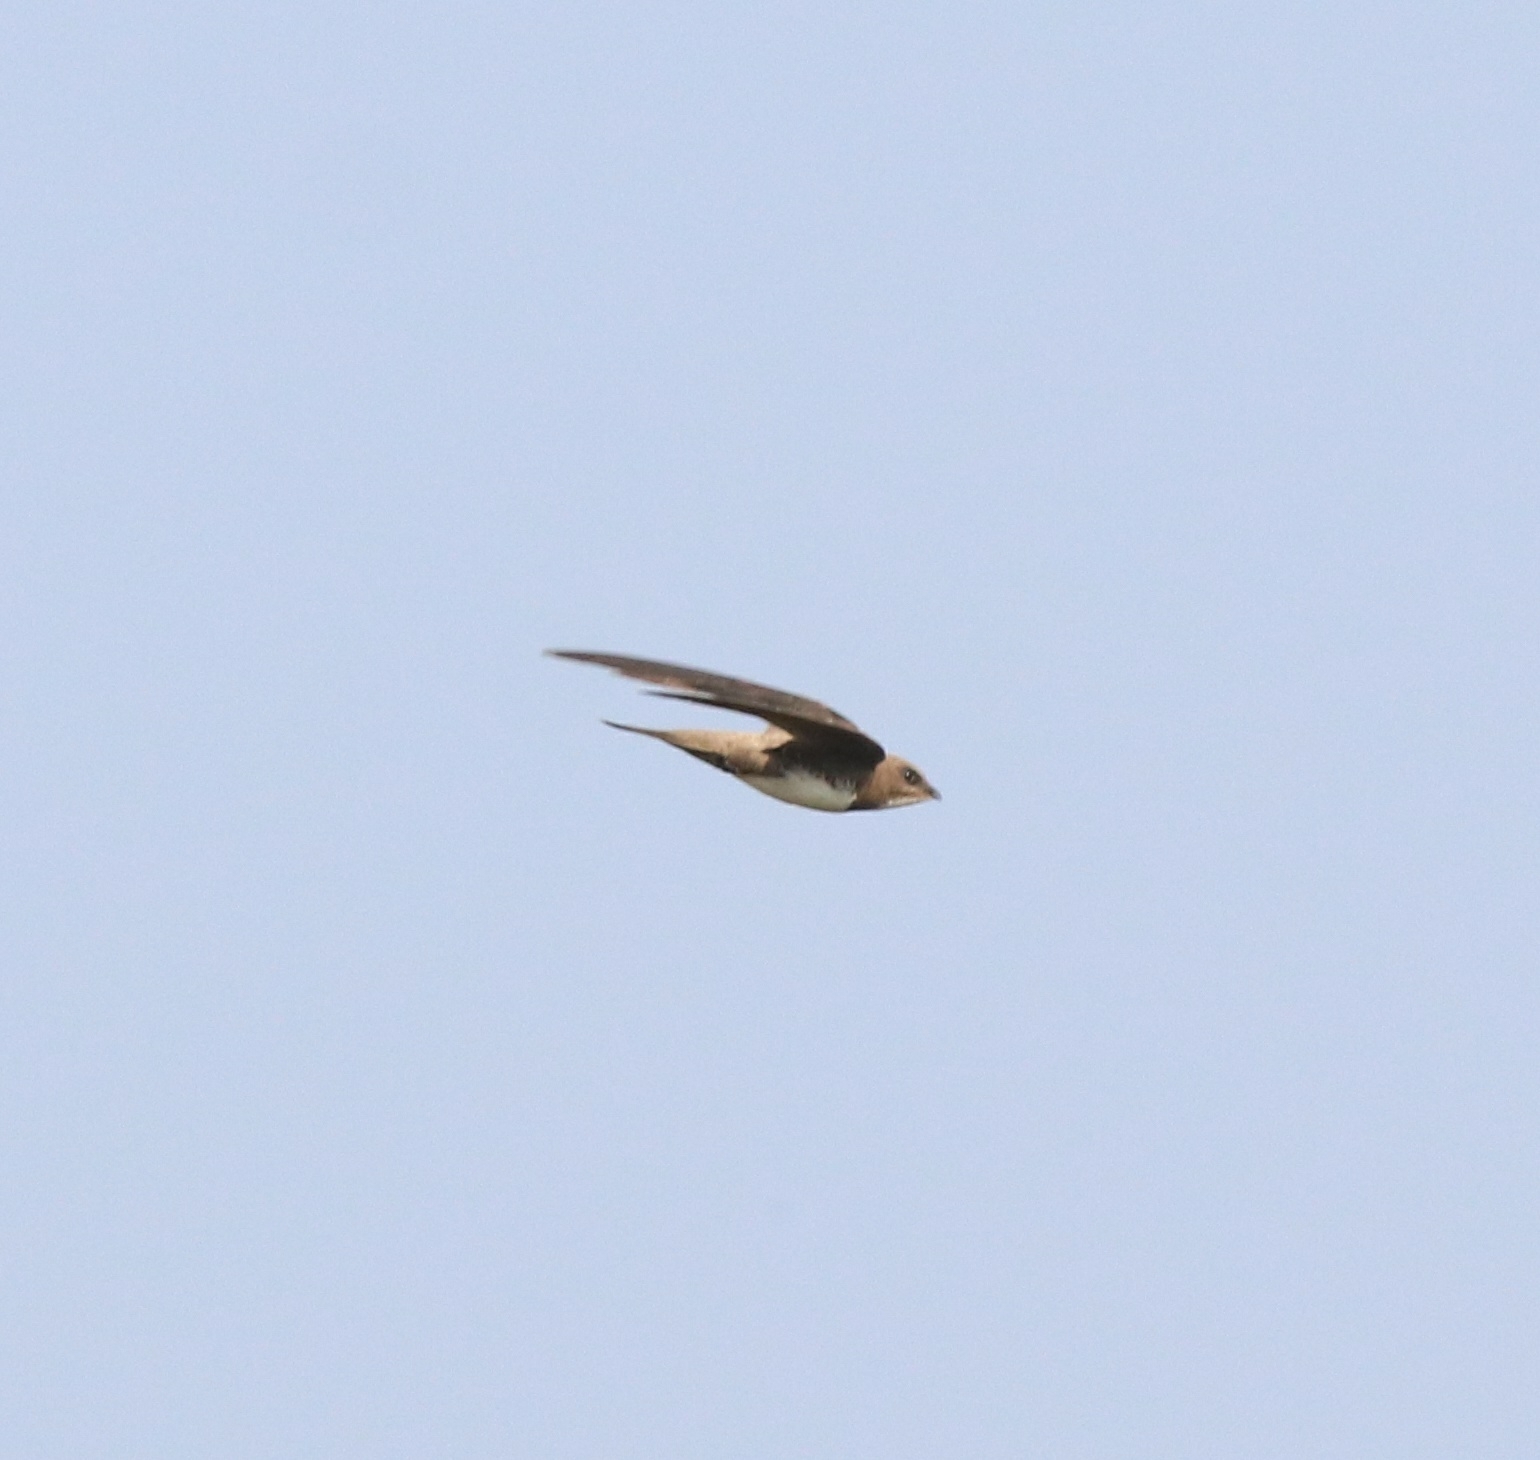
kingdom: Animalia
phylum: Chordata
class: Aves
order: Apodiformes
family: Apodidae
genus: Tachymarptis
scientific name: Tachymarptis melba
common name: Alpine swift
